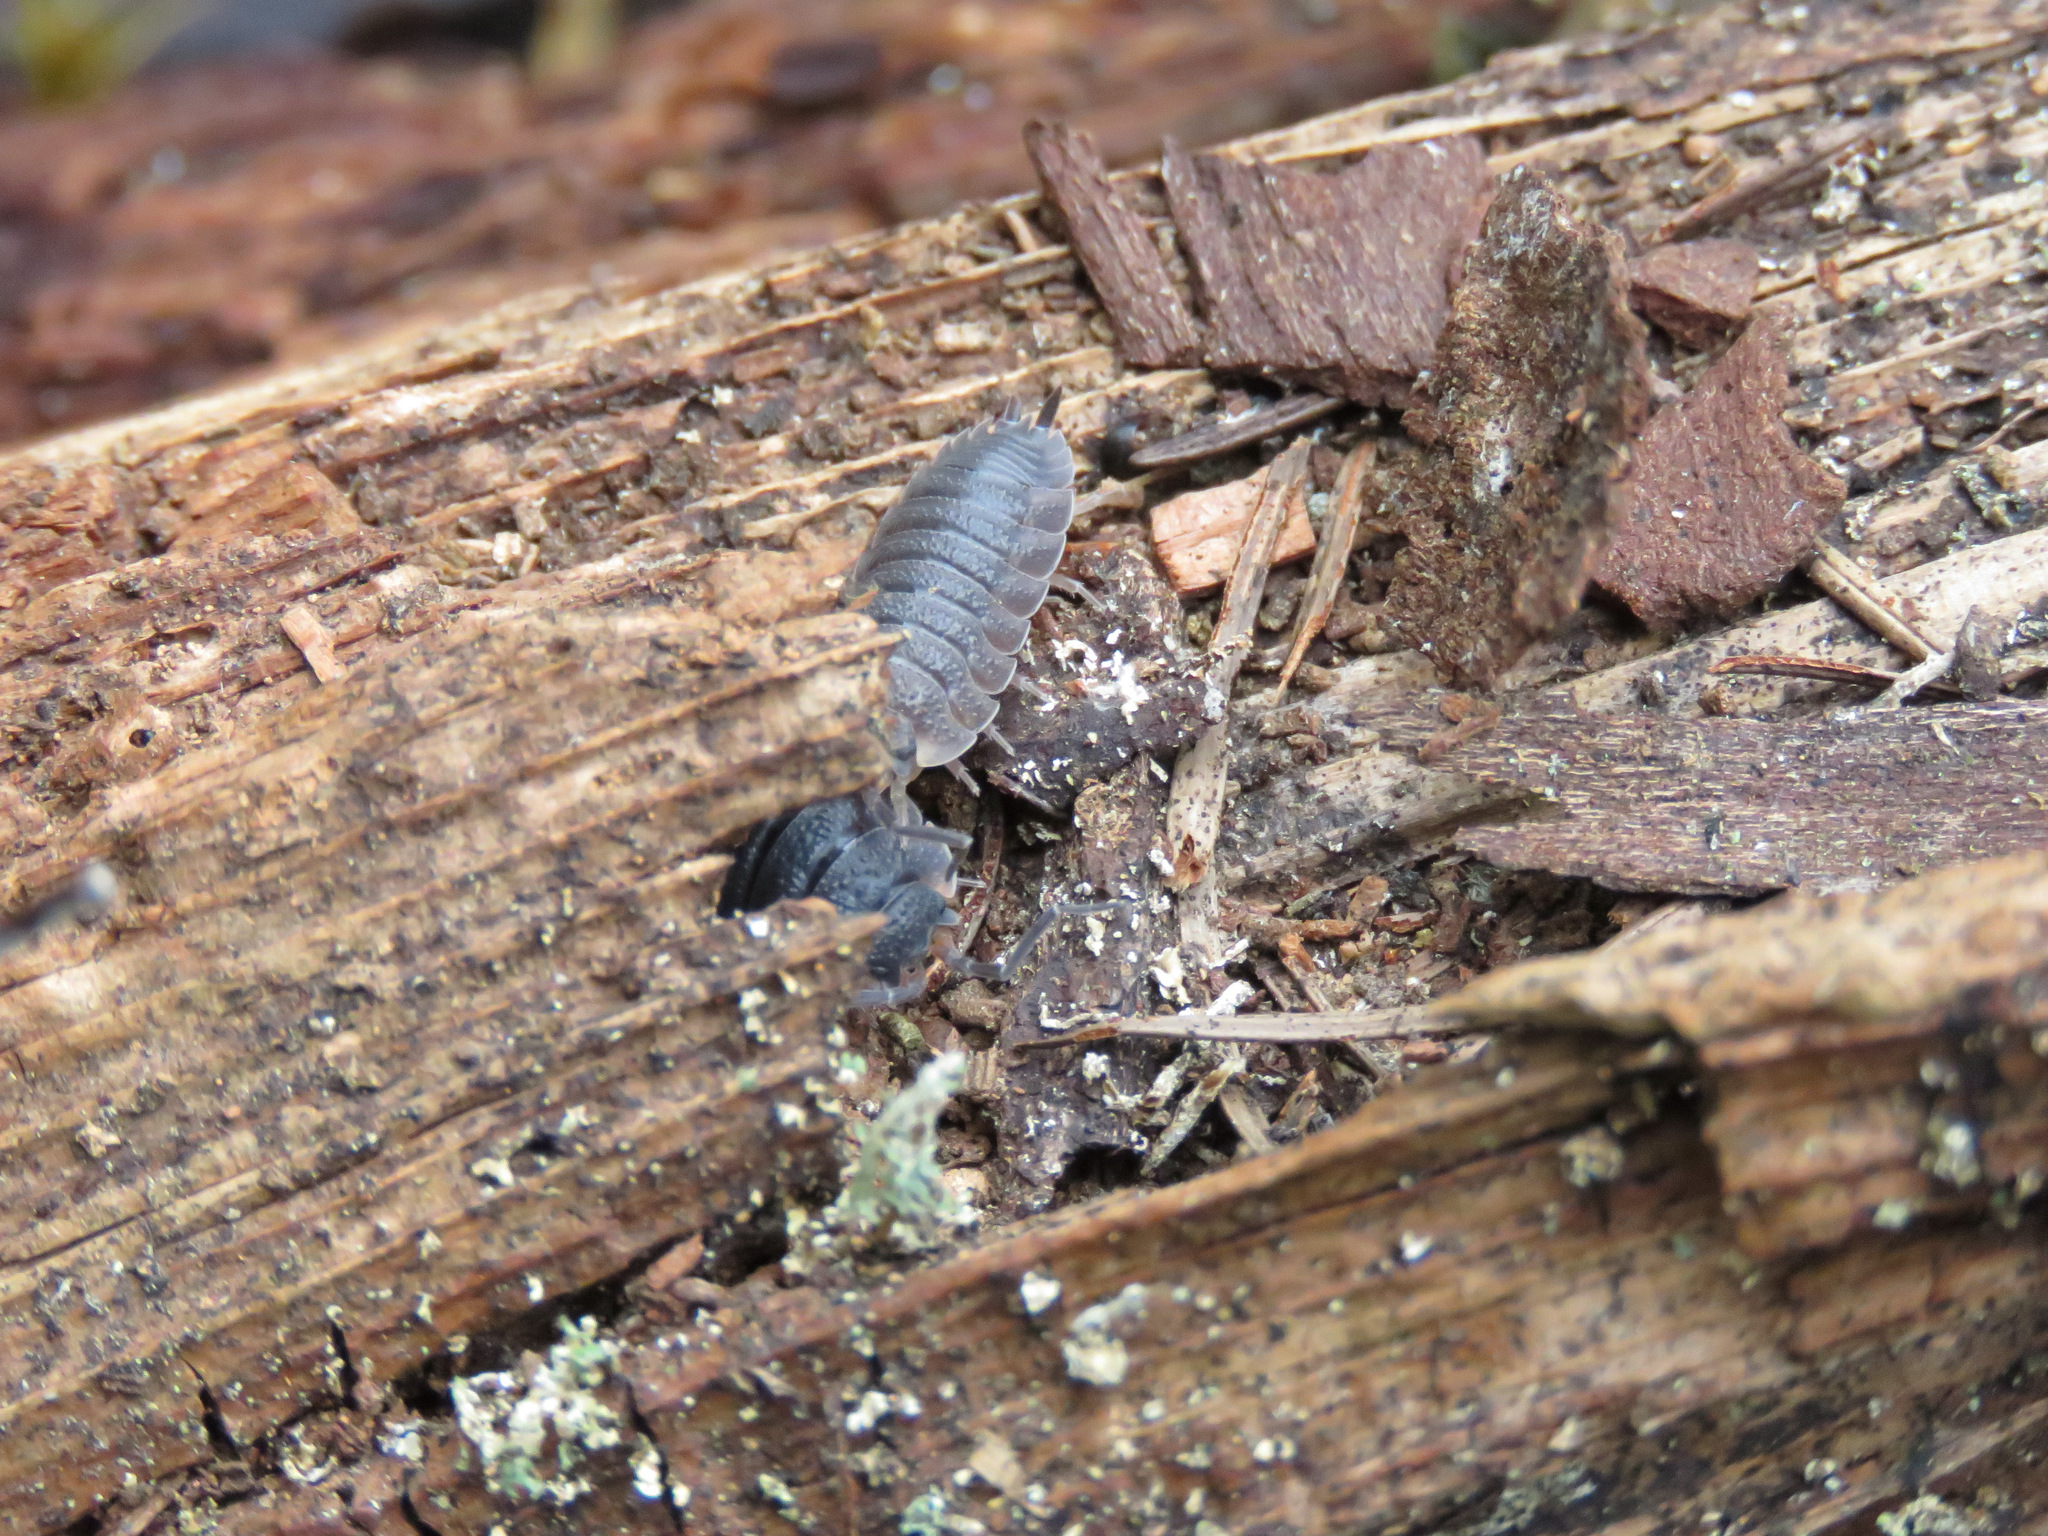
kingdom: Animalia
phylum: Arthropoda
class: Malacostraca
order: Isopoda
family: Porcellionidae
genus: Porcellio
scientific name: Porcellio scaber
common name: Common rough woodlouse
